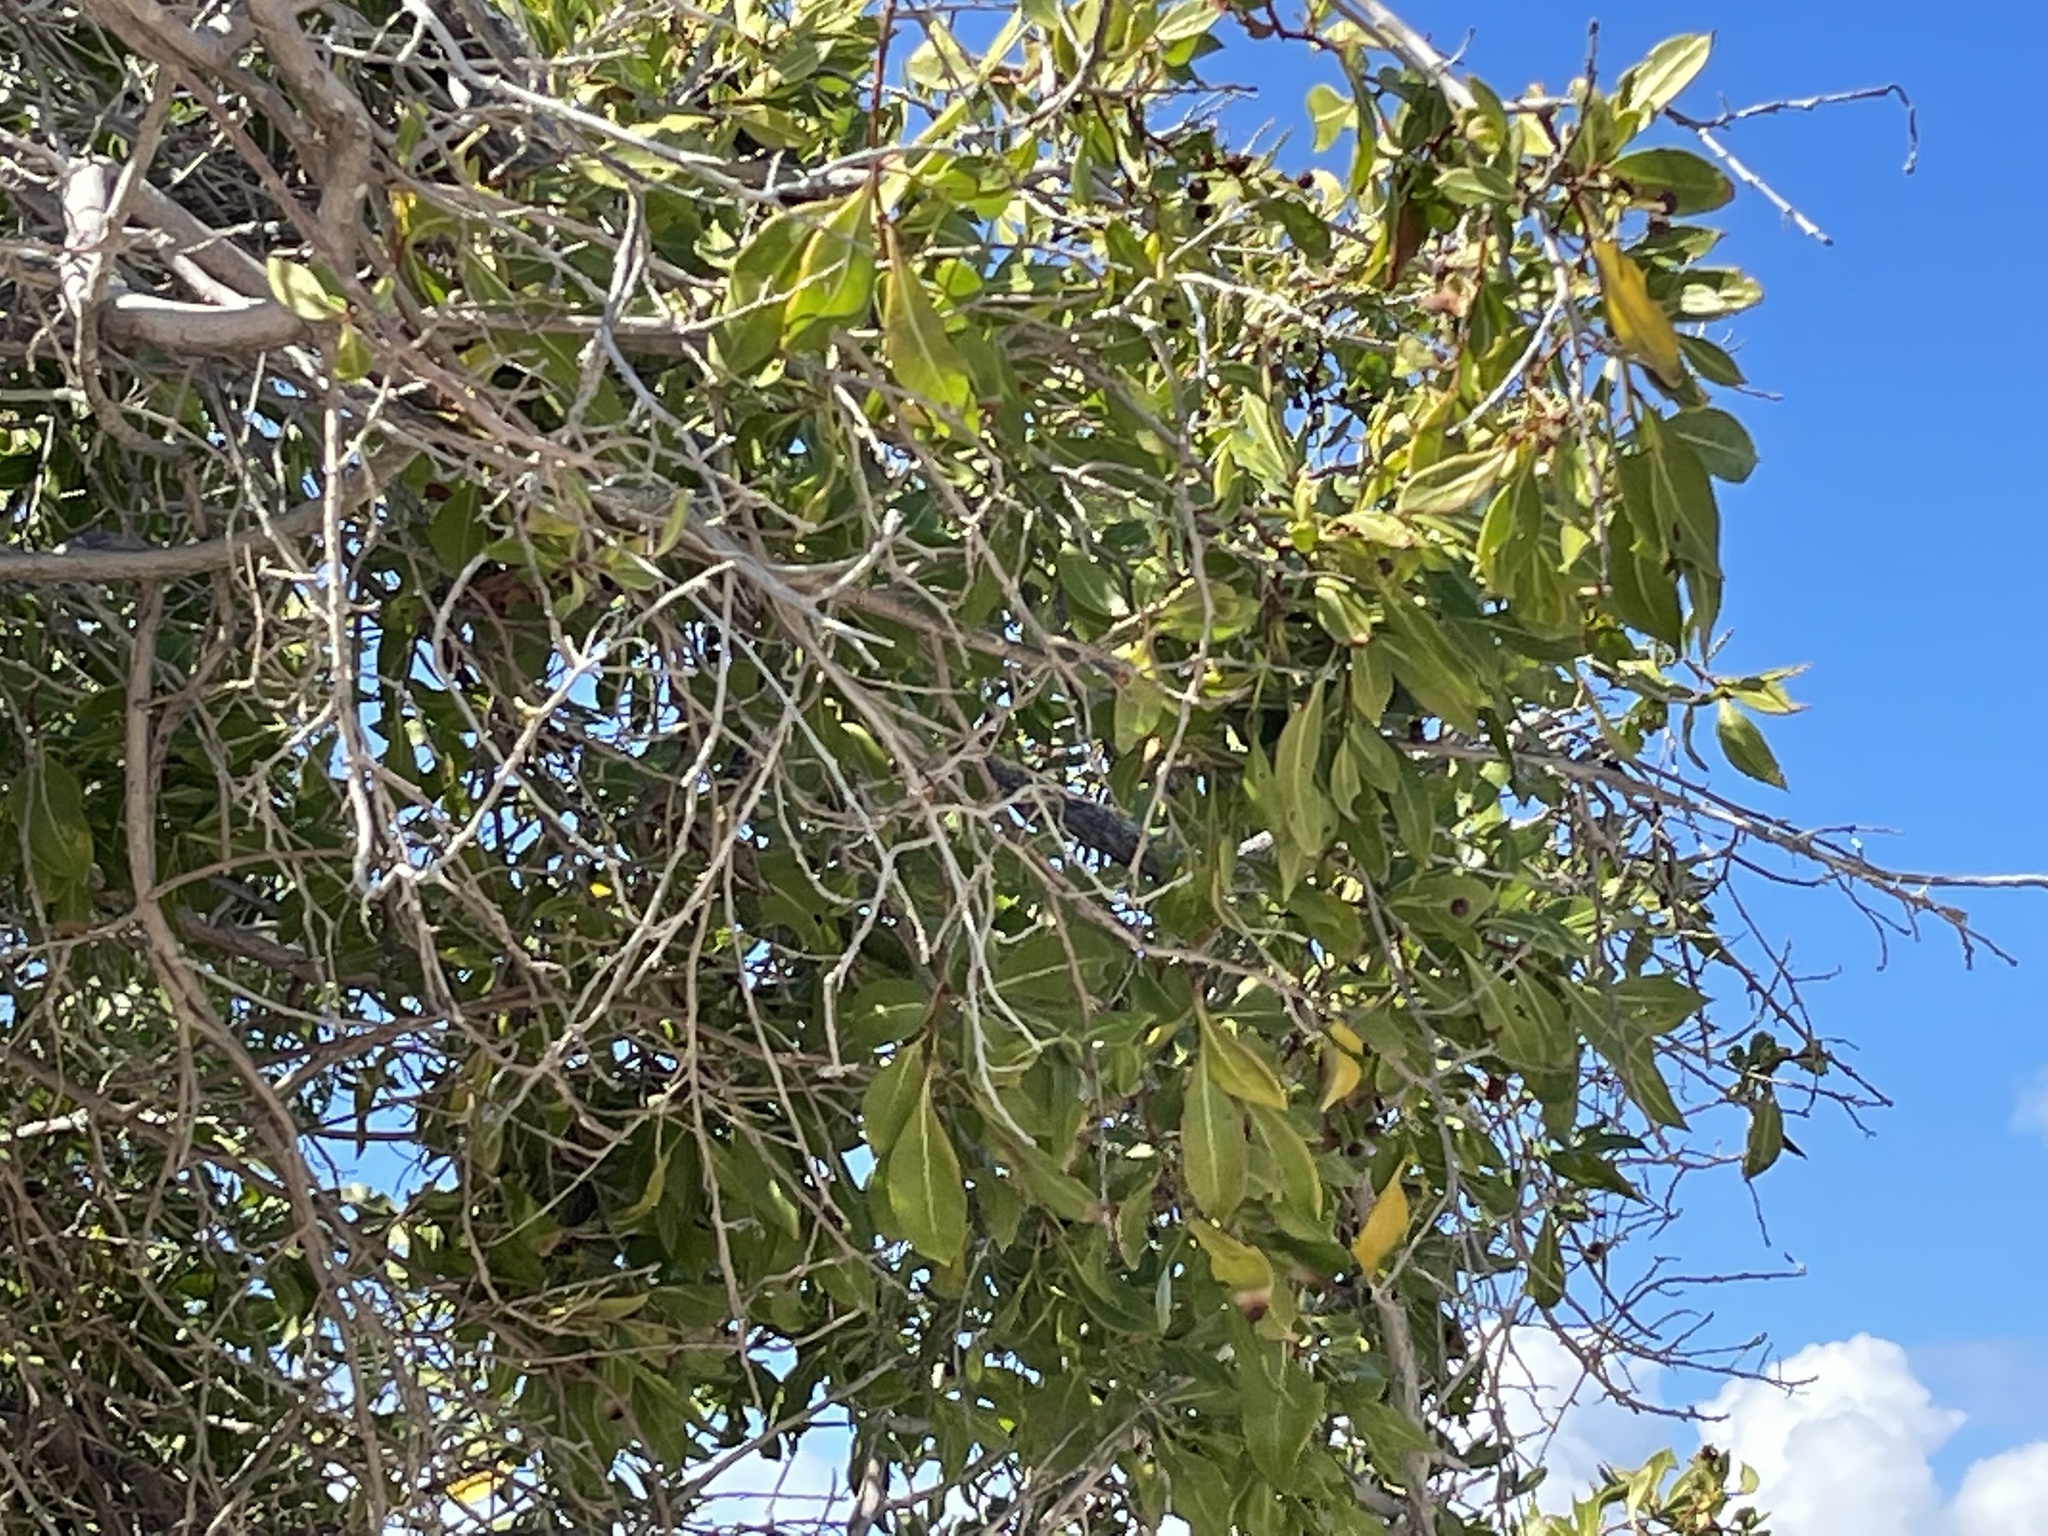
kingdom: Plantae
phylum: Tracheophyta
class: Magnoliopsida
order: Myrtales
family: Combretaceae
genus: Conocarpus
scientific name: Conocarpus erectus
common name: Button mangrove
